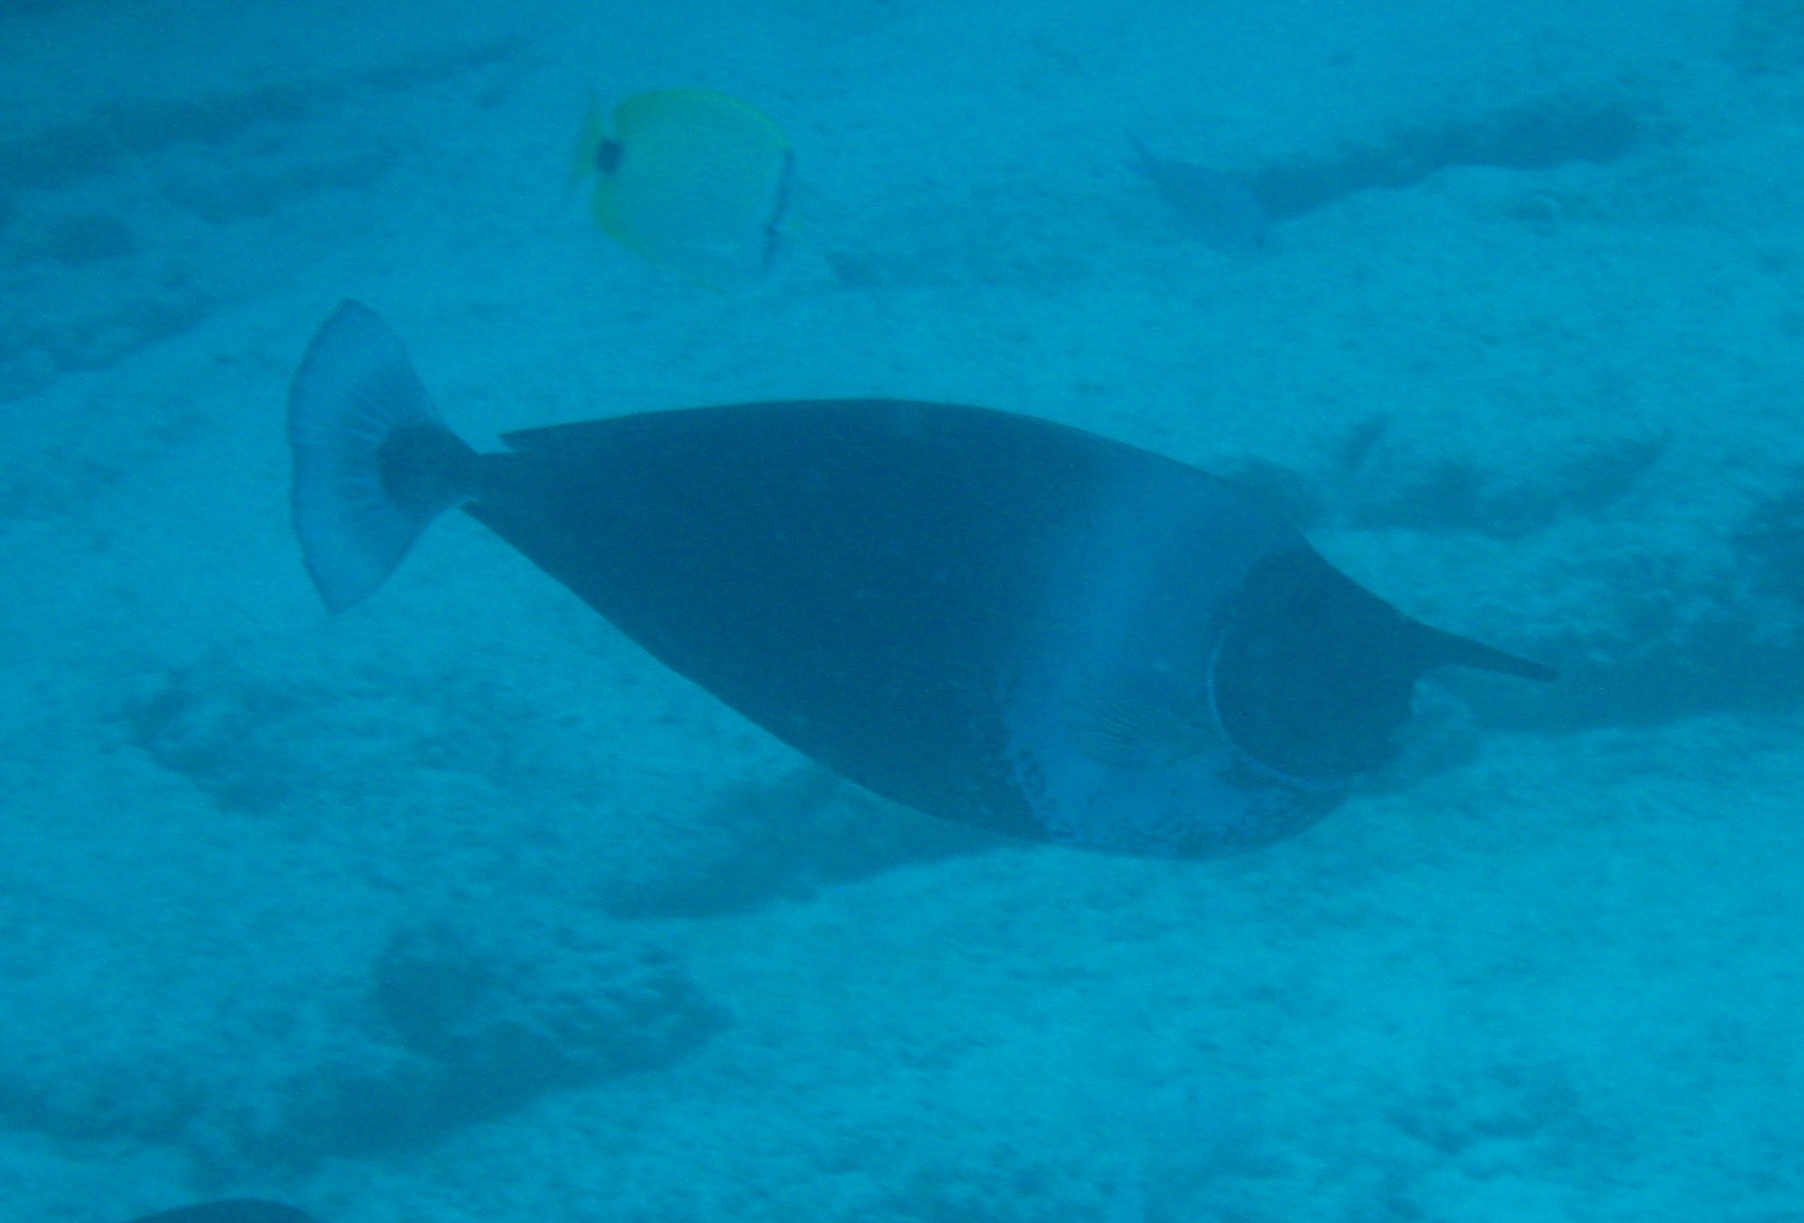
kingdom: Animalia
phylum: Chordata
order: Perciformes
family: Acanthuridae
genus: Naso
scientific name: Naso brevirostris
